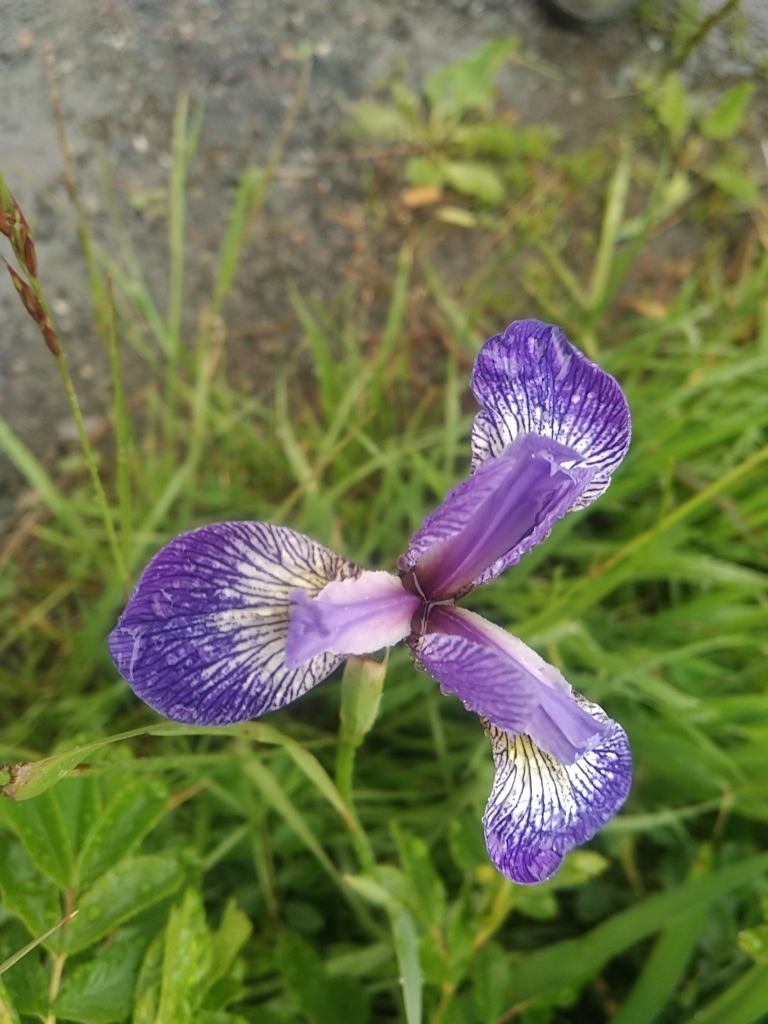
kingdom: Plantae
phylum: Tracheophyta
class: Liliopsida
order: Asparagales
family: Iridaceae
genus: Iris
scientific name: Iris versicolor
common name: Purple iris
